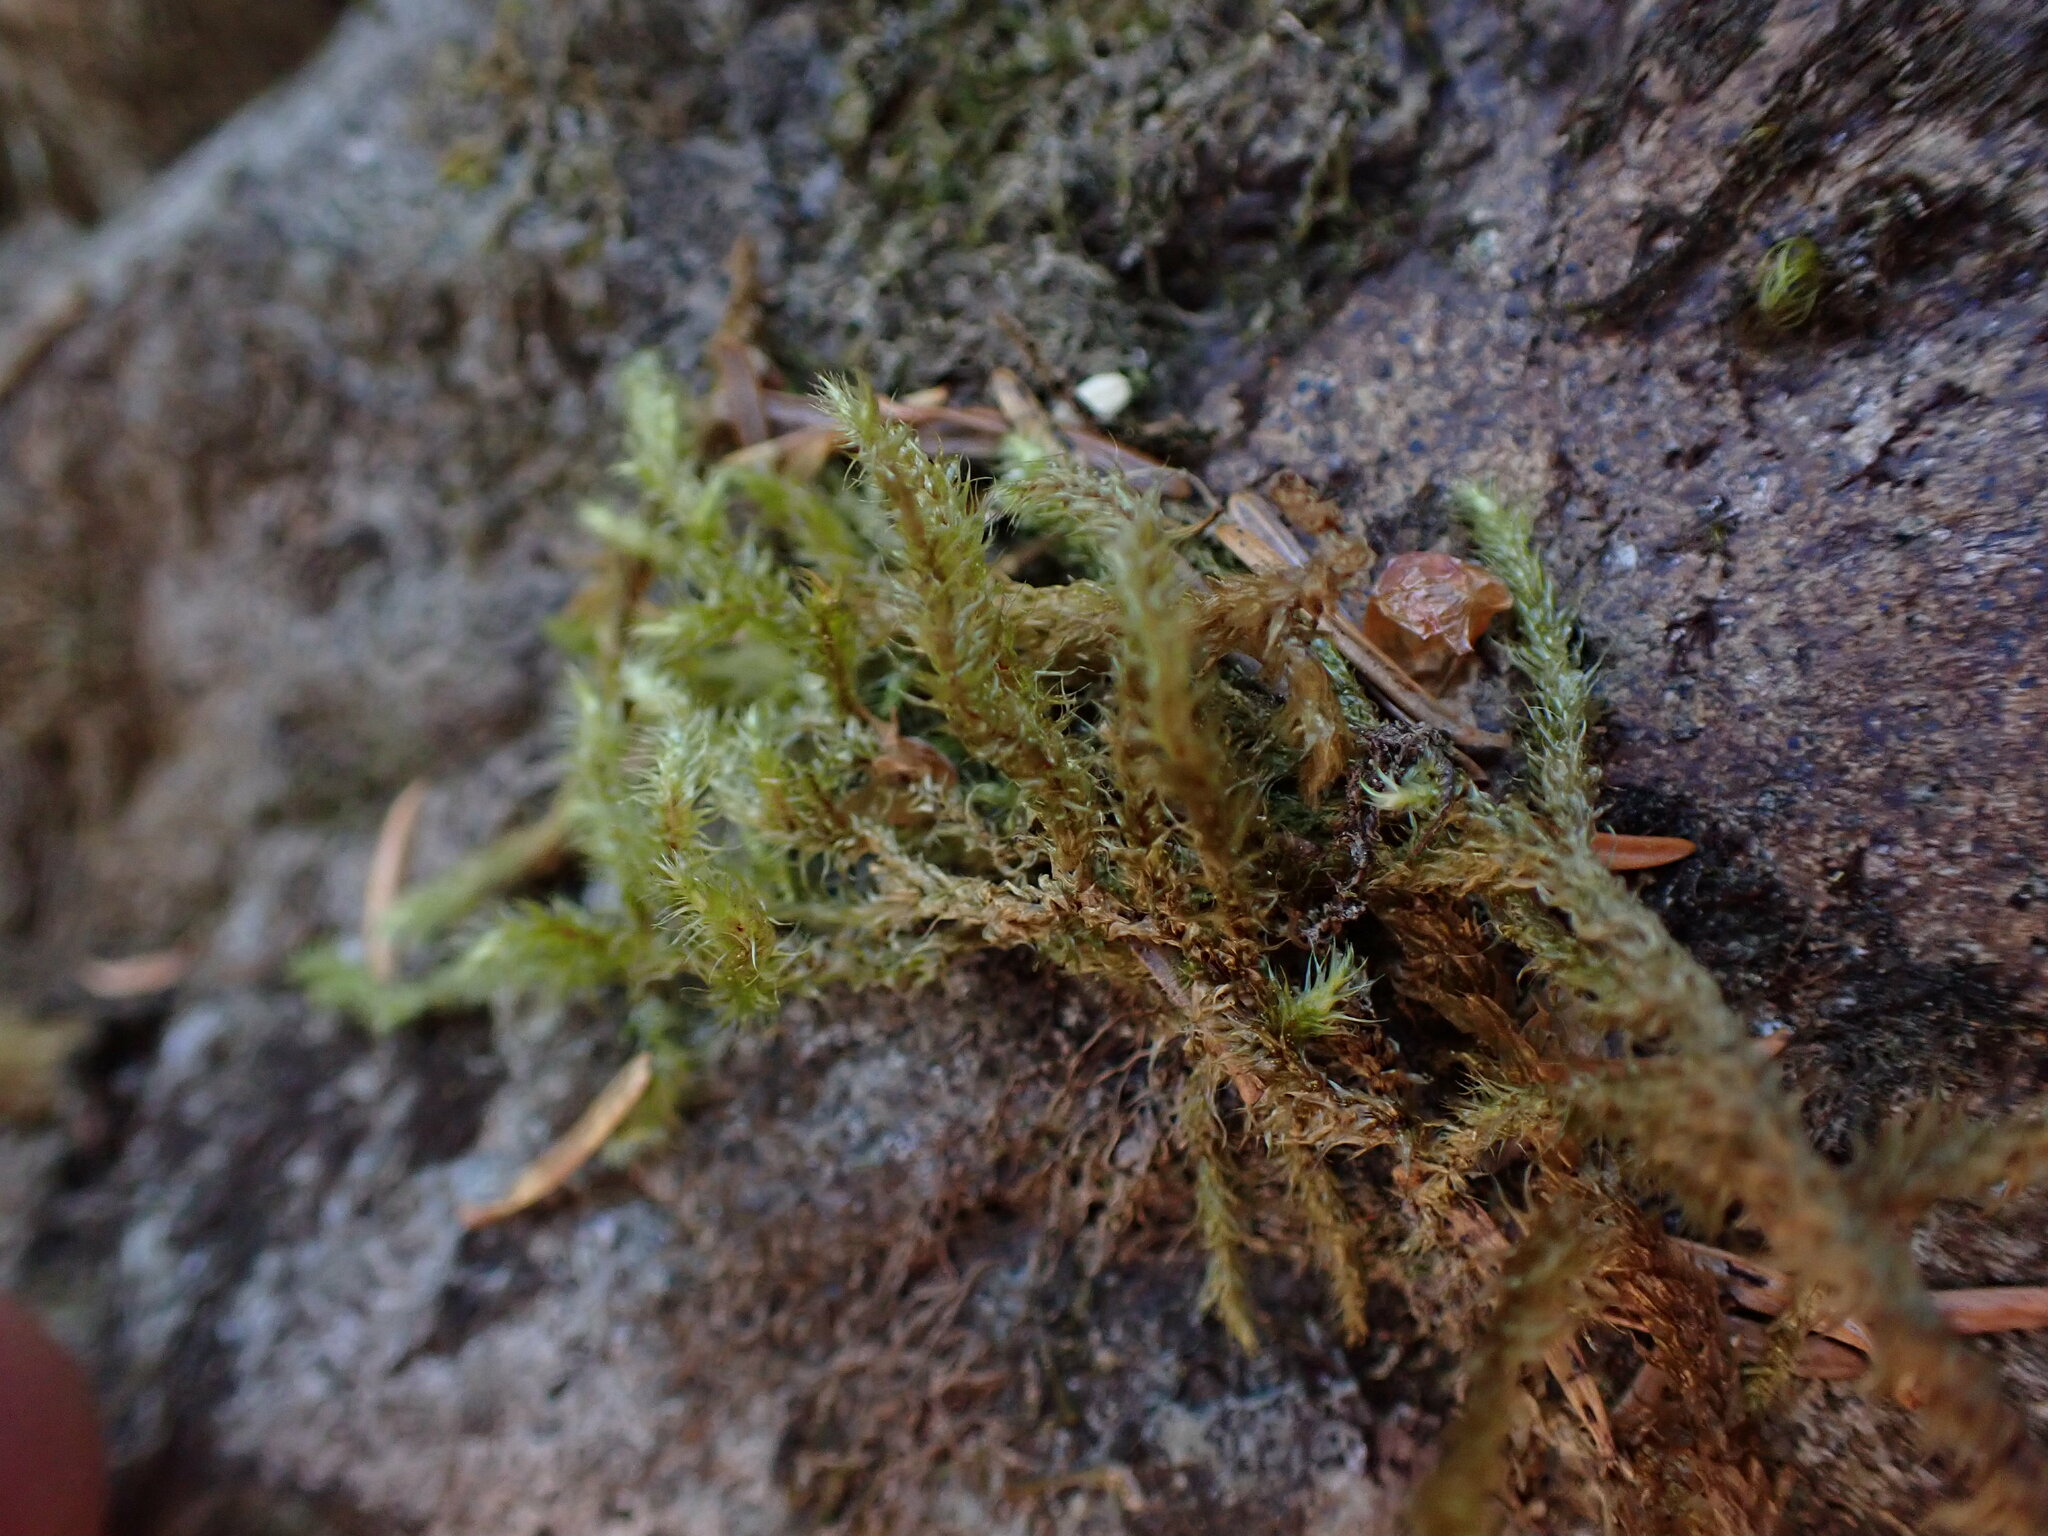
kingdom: Plantae
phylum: Bryophyta
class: Bryopsida
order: Hypnales
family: Hylocomiaceae
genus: Rhytidiadelphus
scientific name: Rhytidiadelphus loreus
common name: Lanky moss
